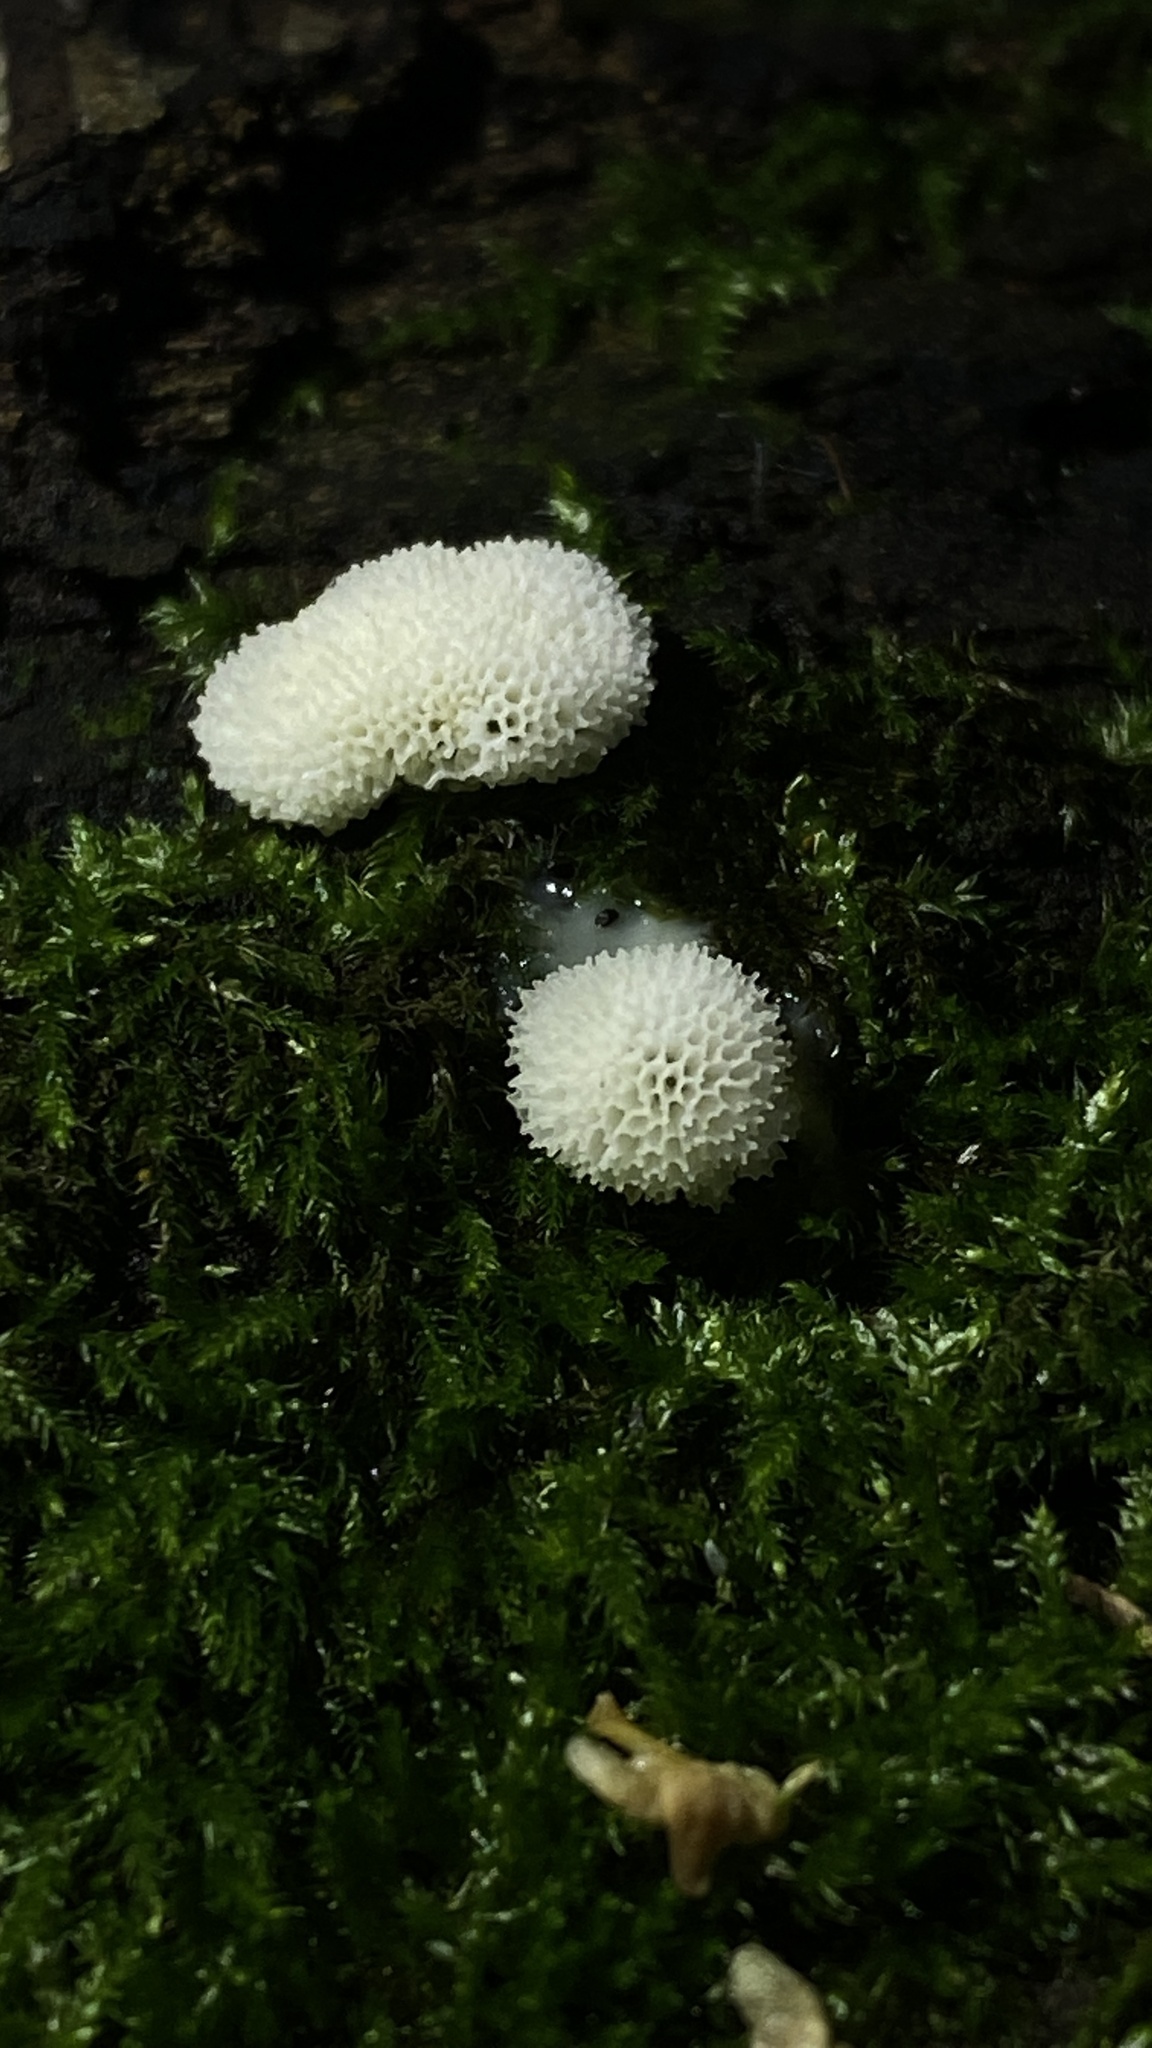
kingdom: Protozoa
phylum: Mycetozoa
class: Protosteliomycetes
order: Ceratiomyxales
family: Ceratiomyxaceae
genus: Ceratiomyxa
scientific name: Ceratiomyxa fruticulosa
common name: Honeycomb coral slime mold
